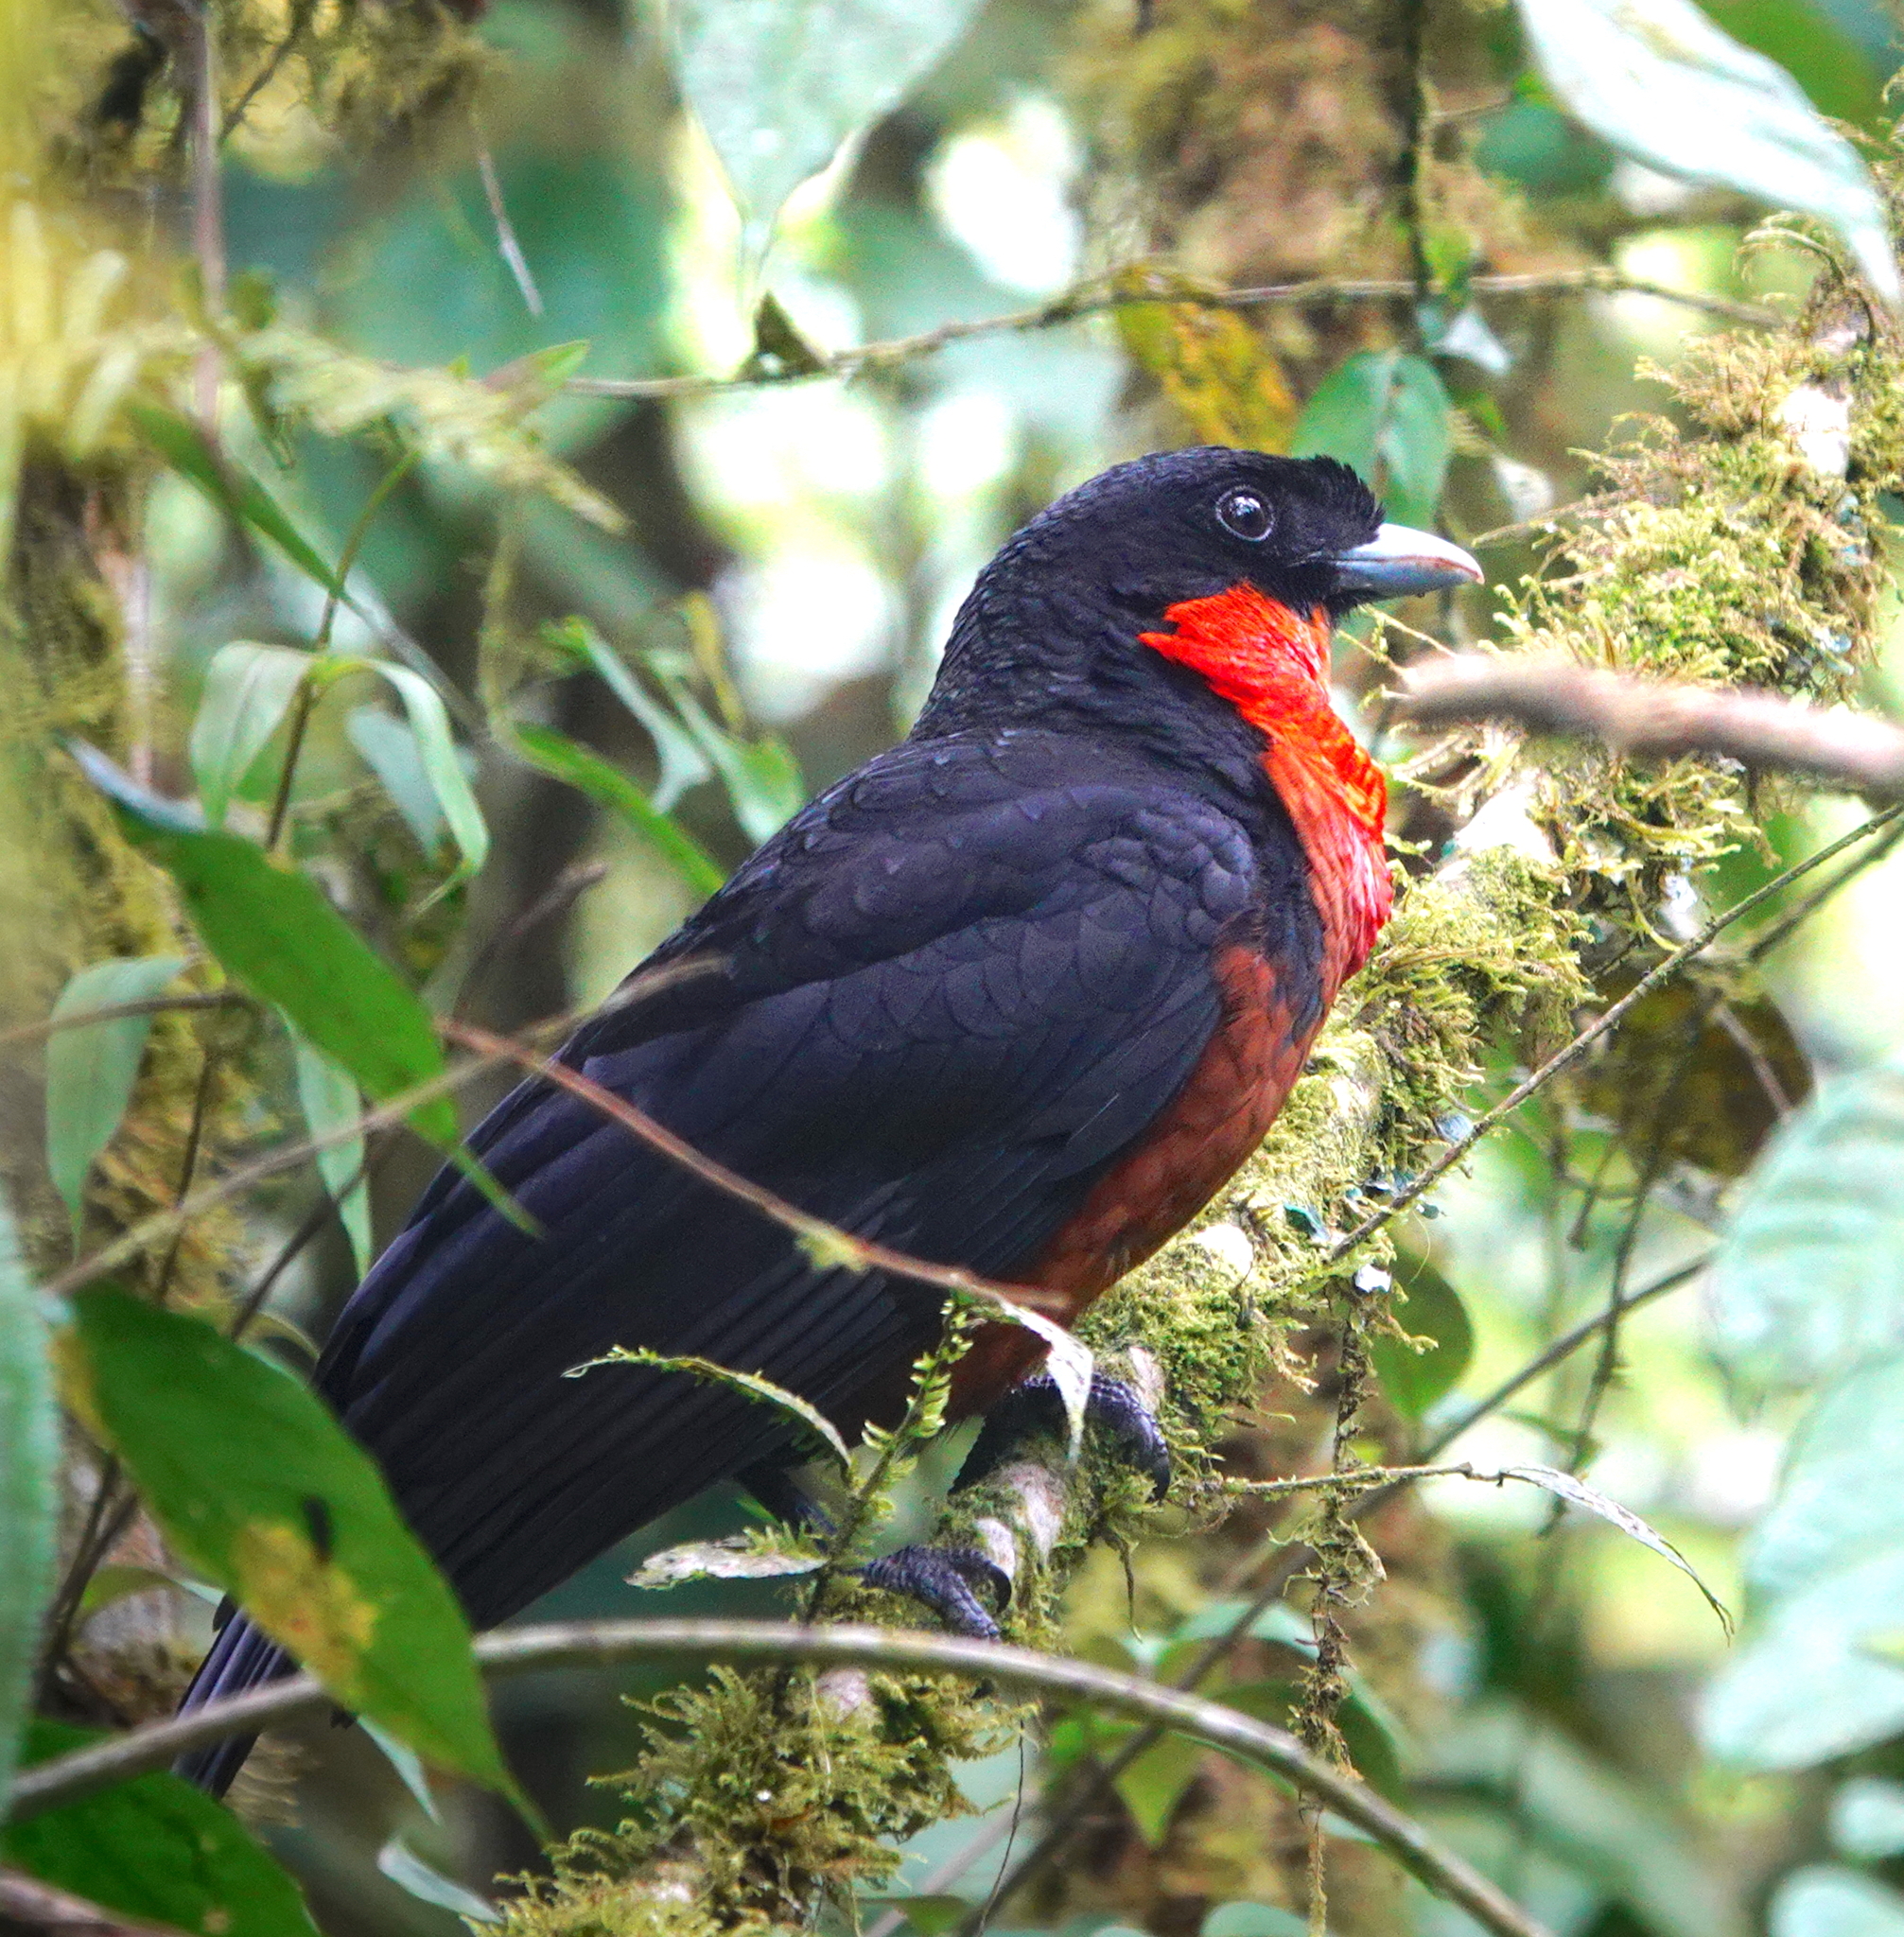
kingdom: Animalia
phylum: Chordata
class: Aves
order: Passeriformes
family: Cotingidae
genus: Pyroderus
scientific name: Pyroderus scutatus
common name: Red-ruffed fruitcrow
